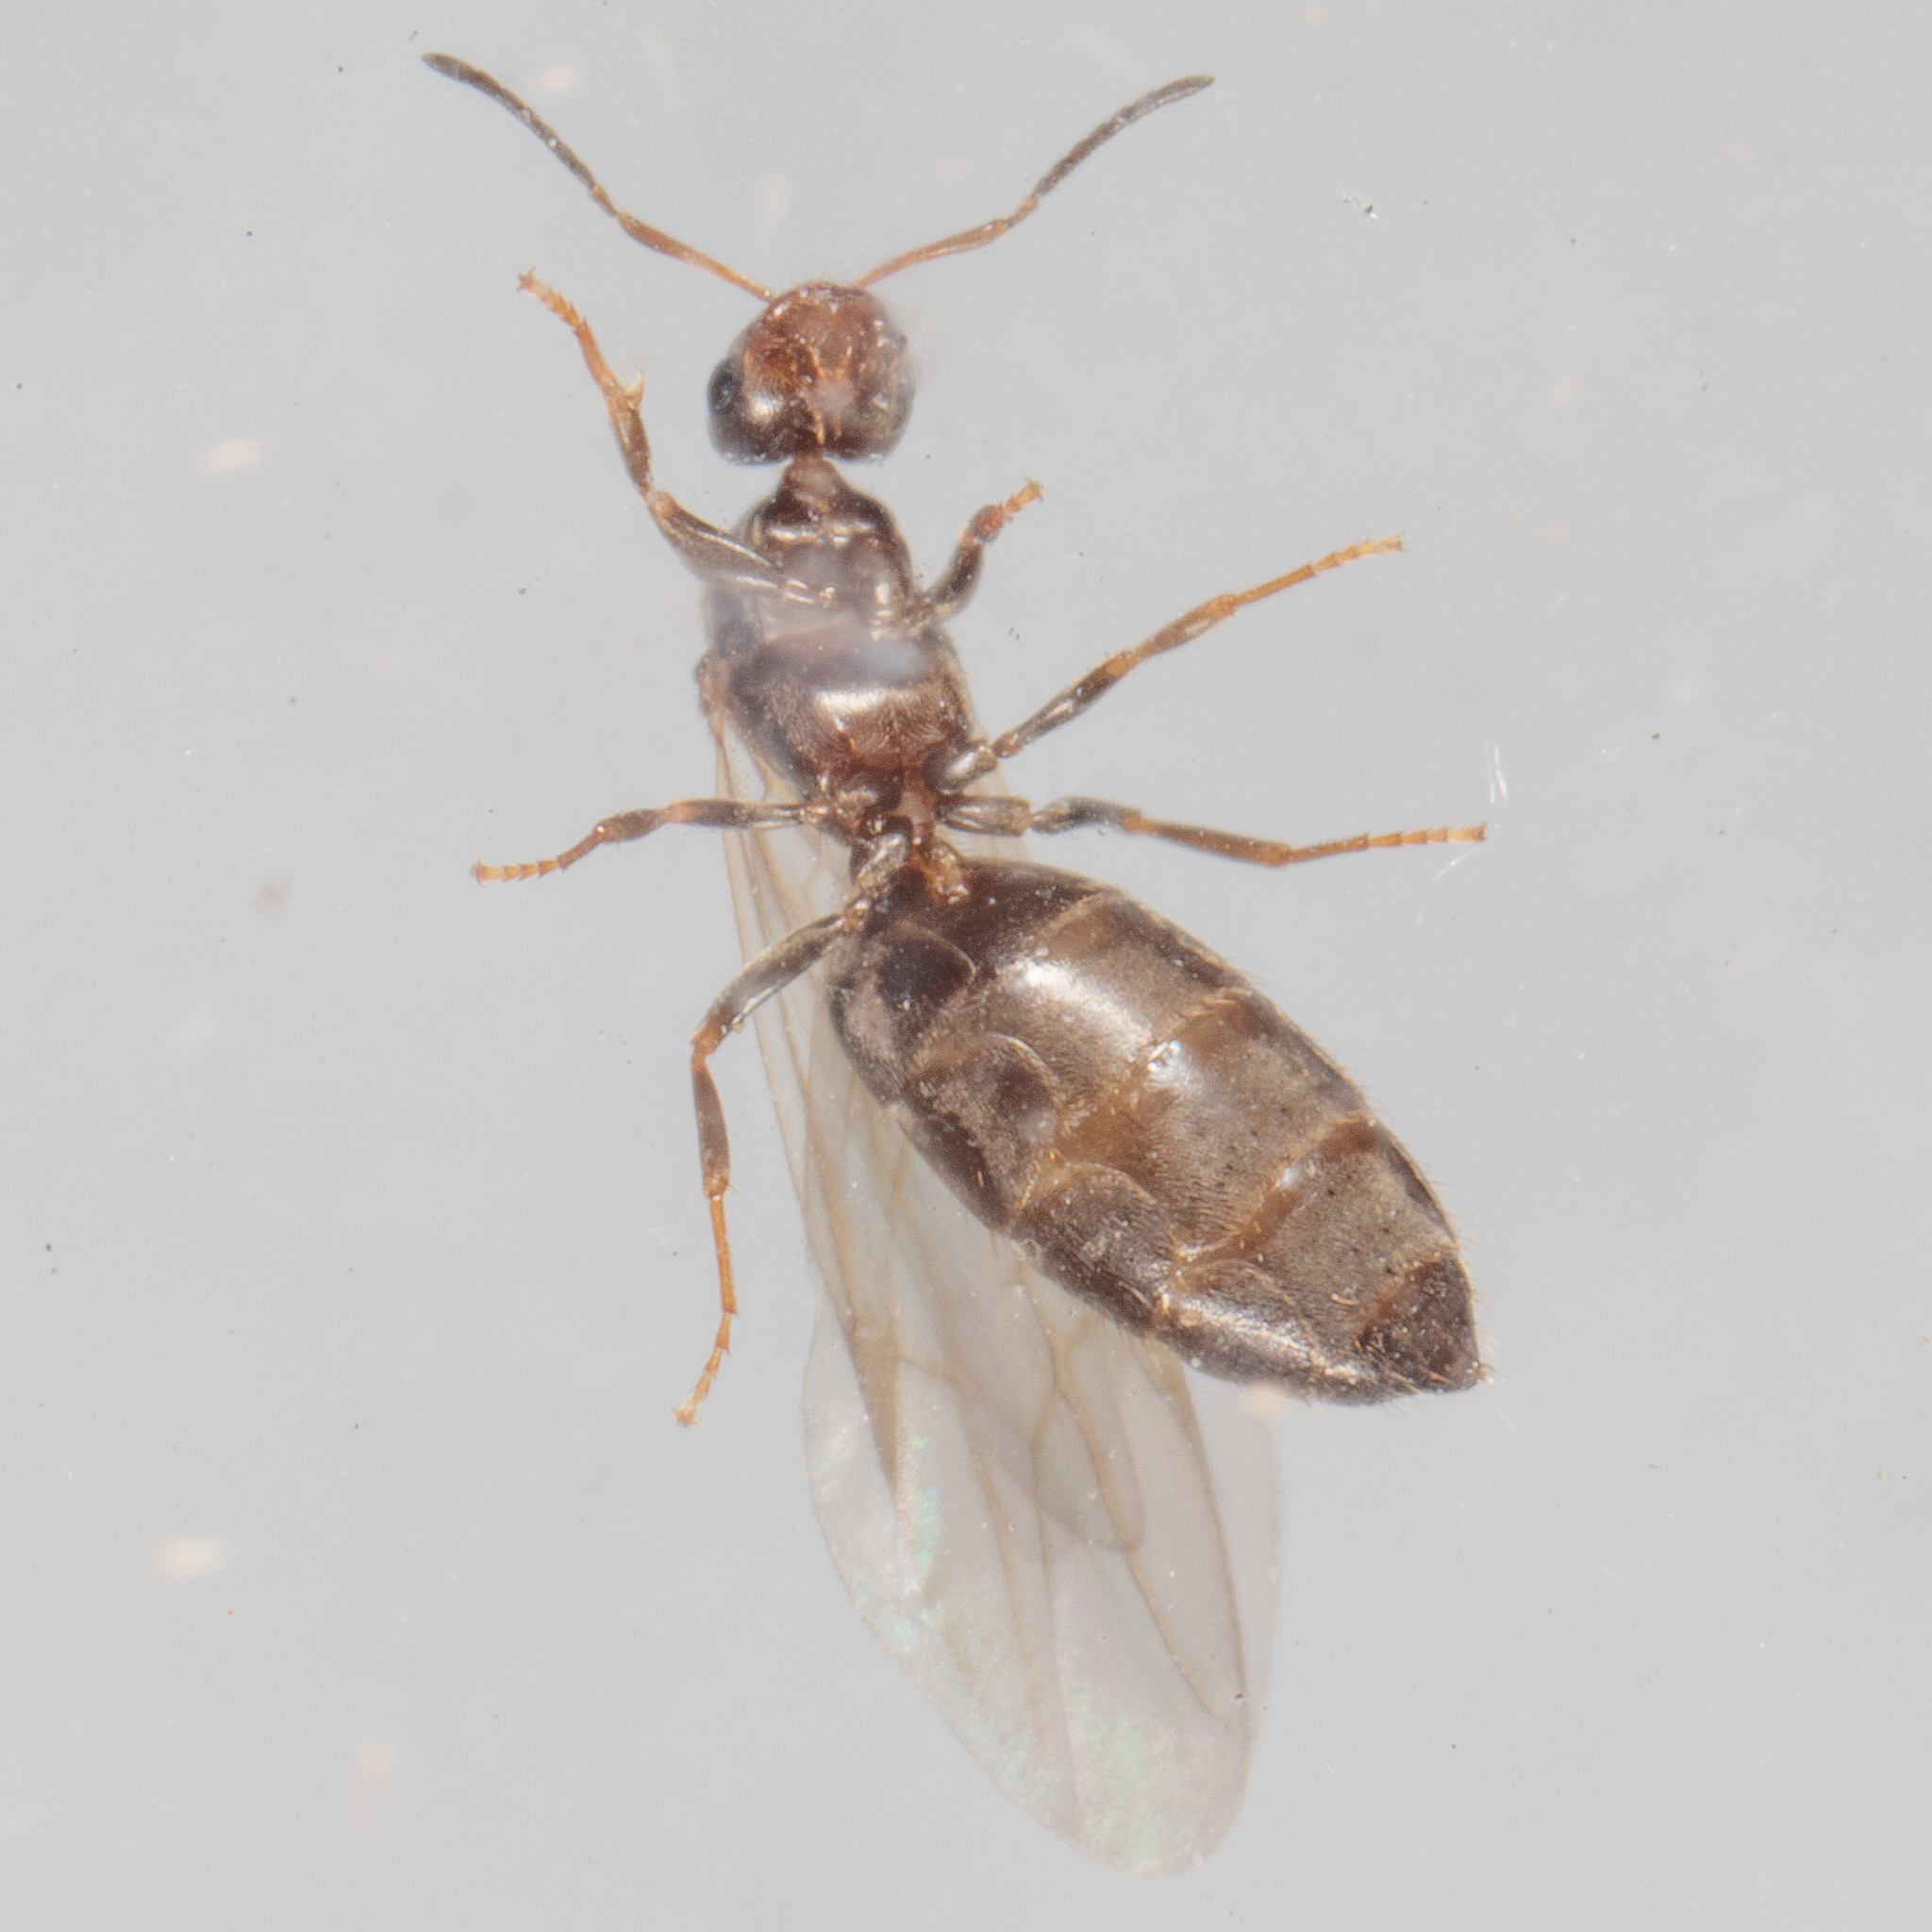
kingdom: Animalia
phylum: Arthropoda
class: Insecta
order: Hymenoptera
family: Formicidae
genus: Brachymyrmex
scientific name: Brachymyrmex patagonicus
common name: Dark rover ant
